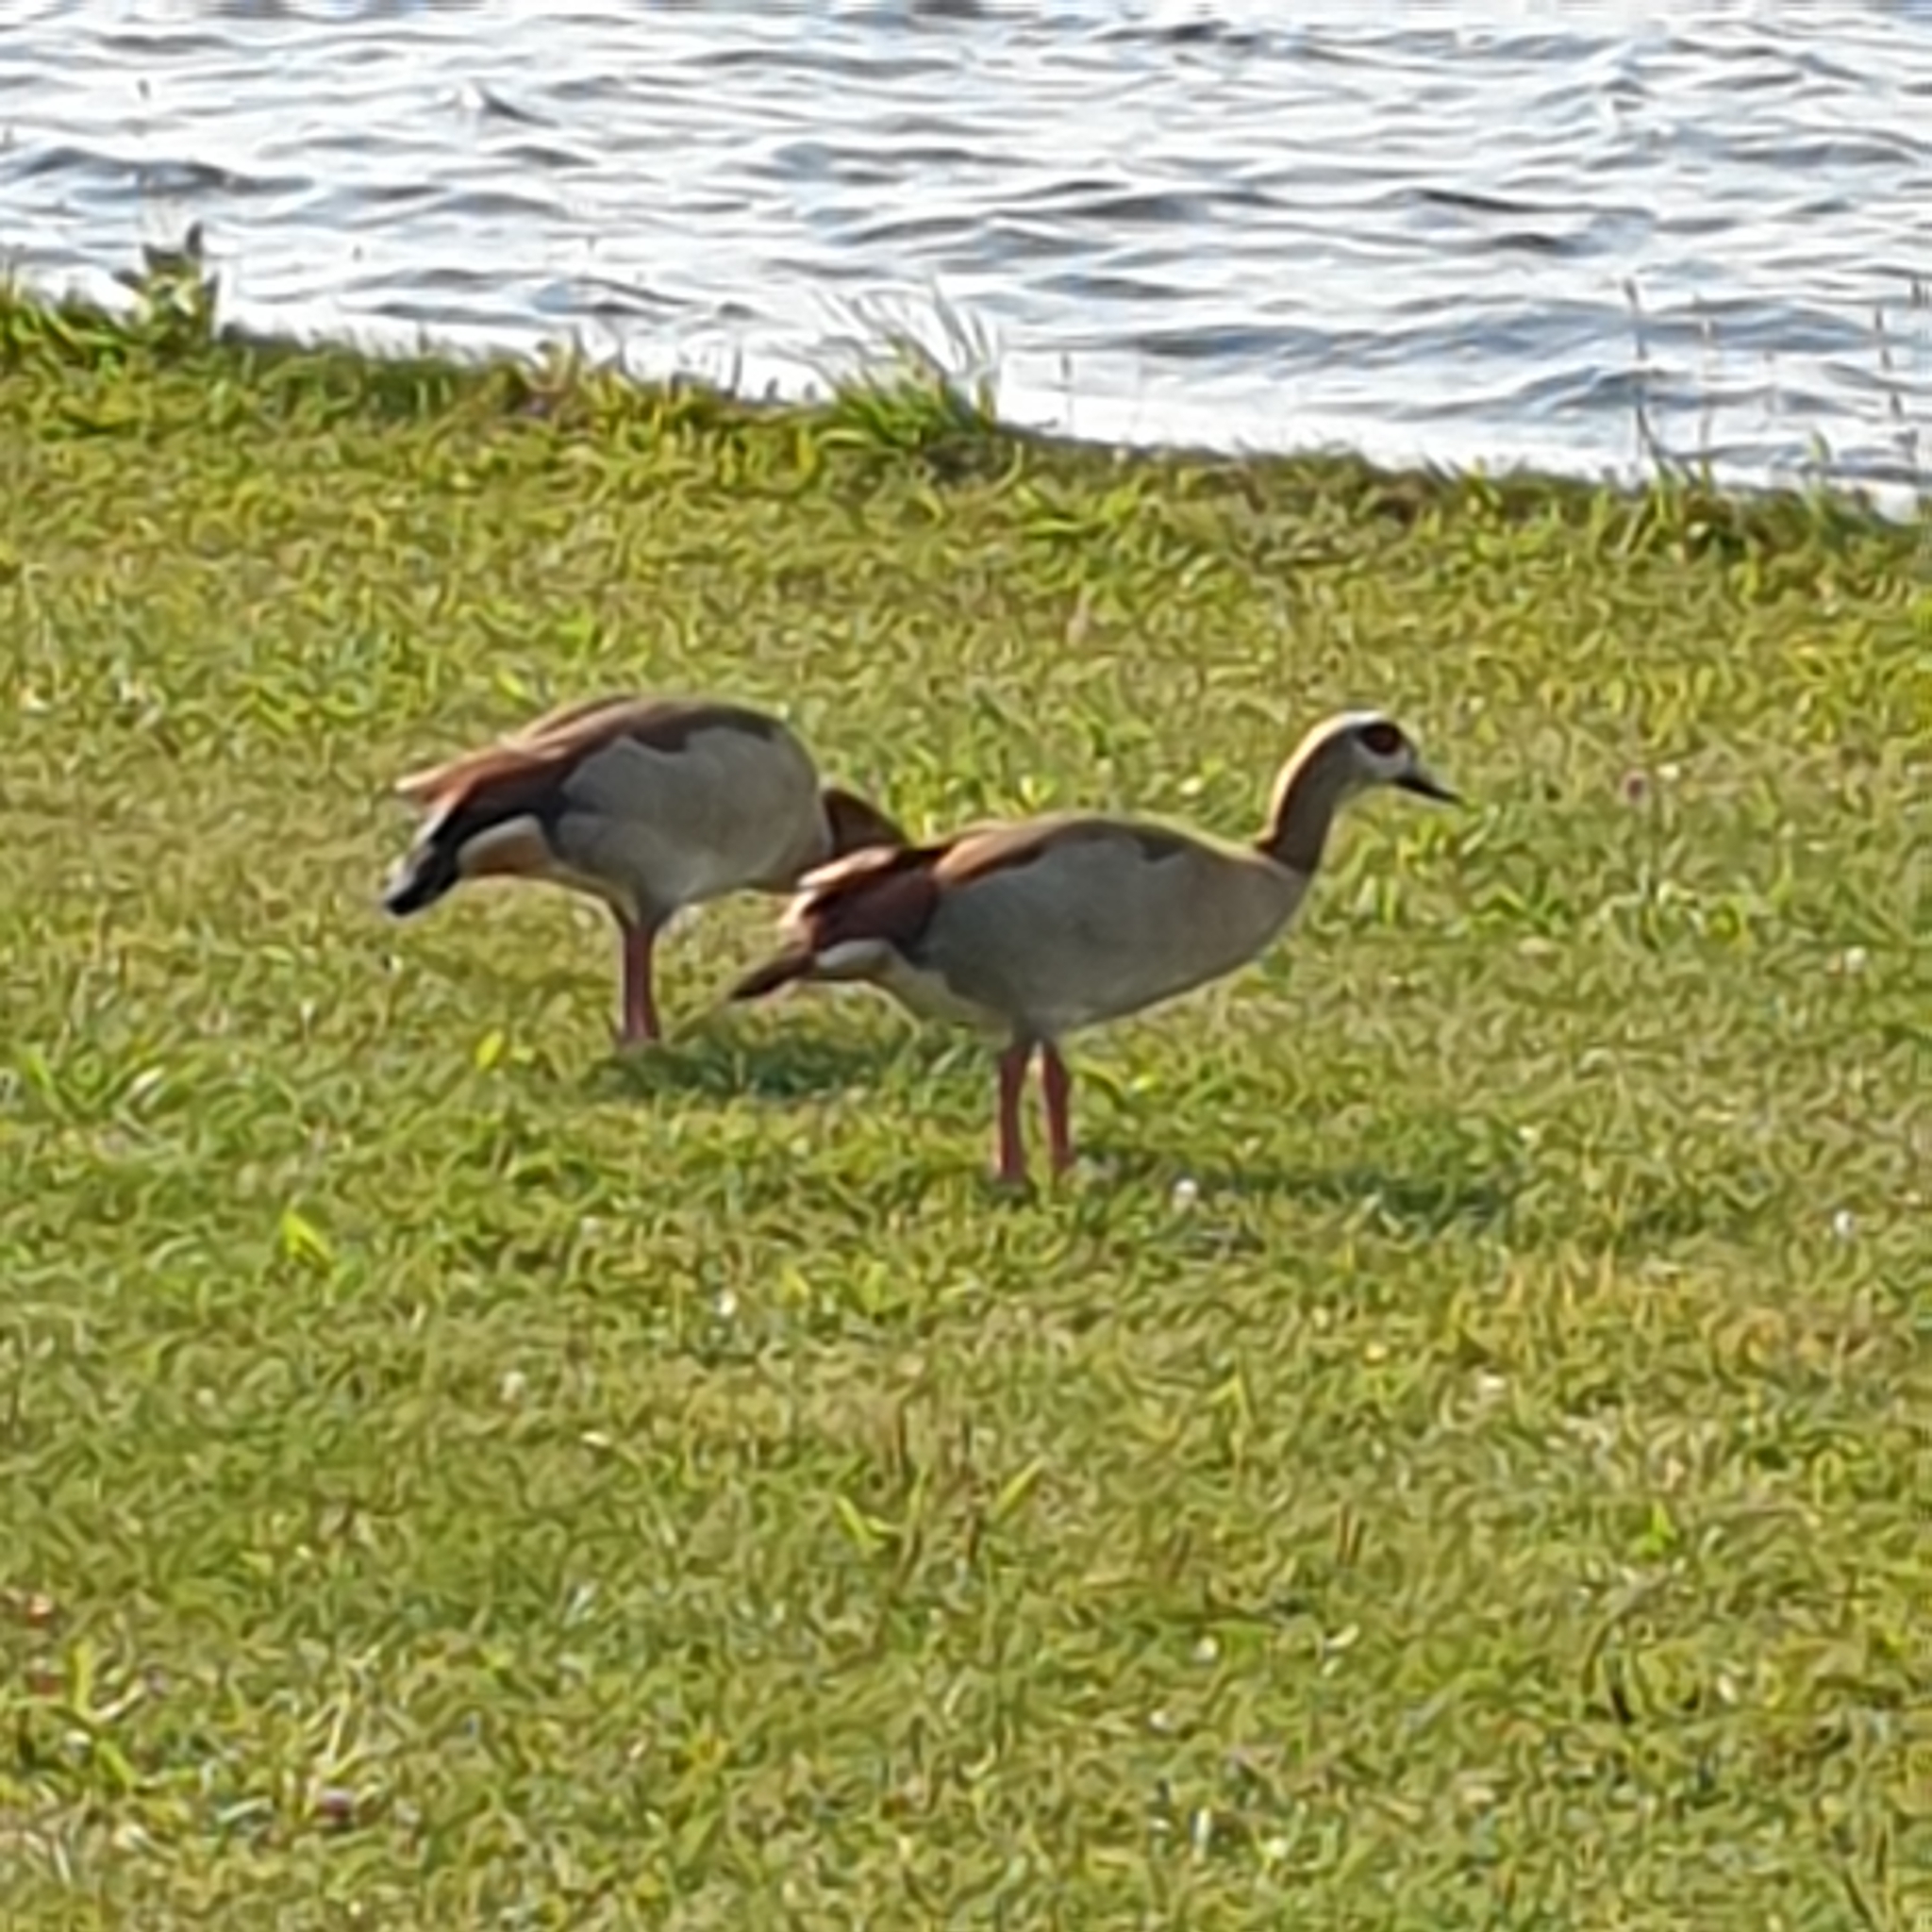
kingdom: Animalia
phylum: Chordata
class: Aves
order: Anseriformes
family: Anatidae
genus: Alopochen
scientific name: Alopochen aegyptiaca
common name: Egyptian goose
